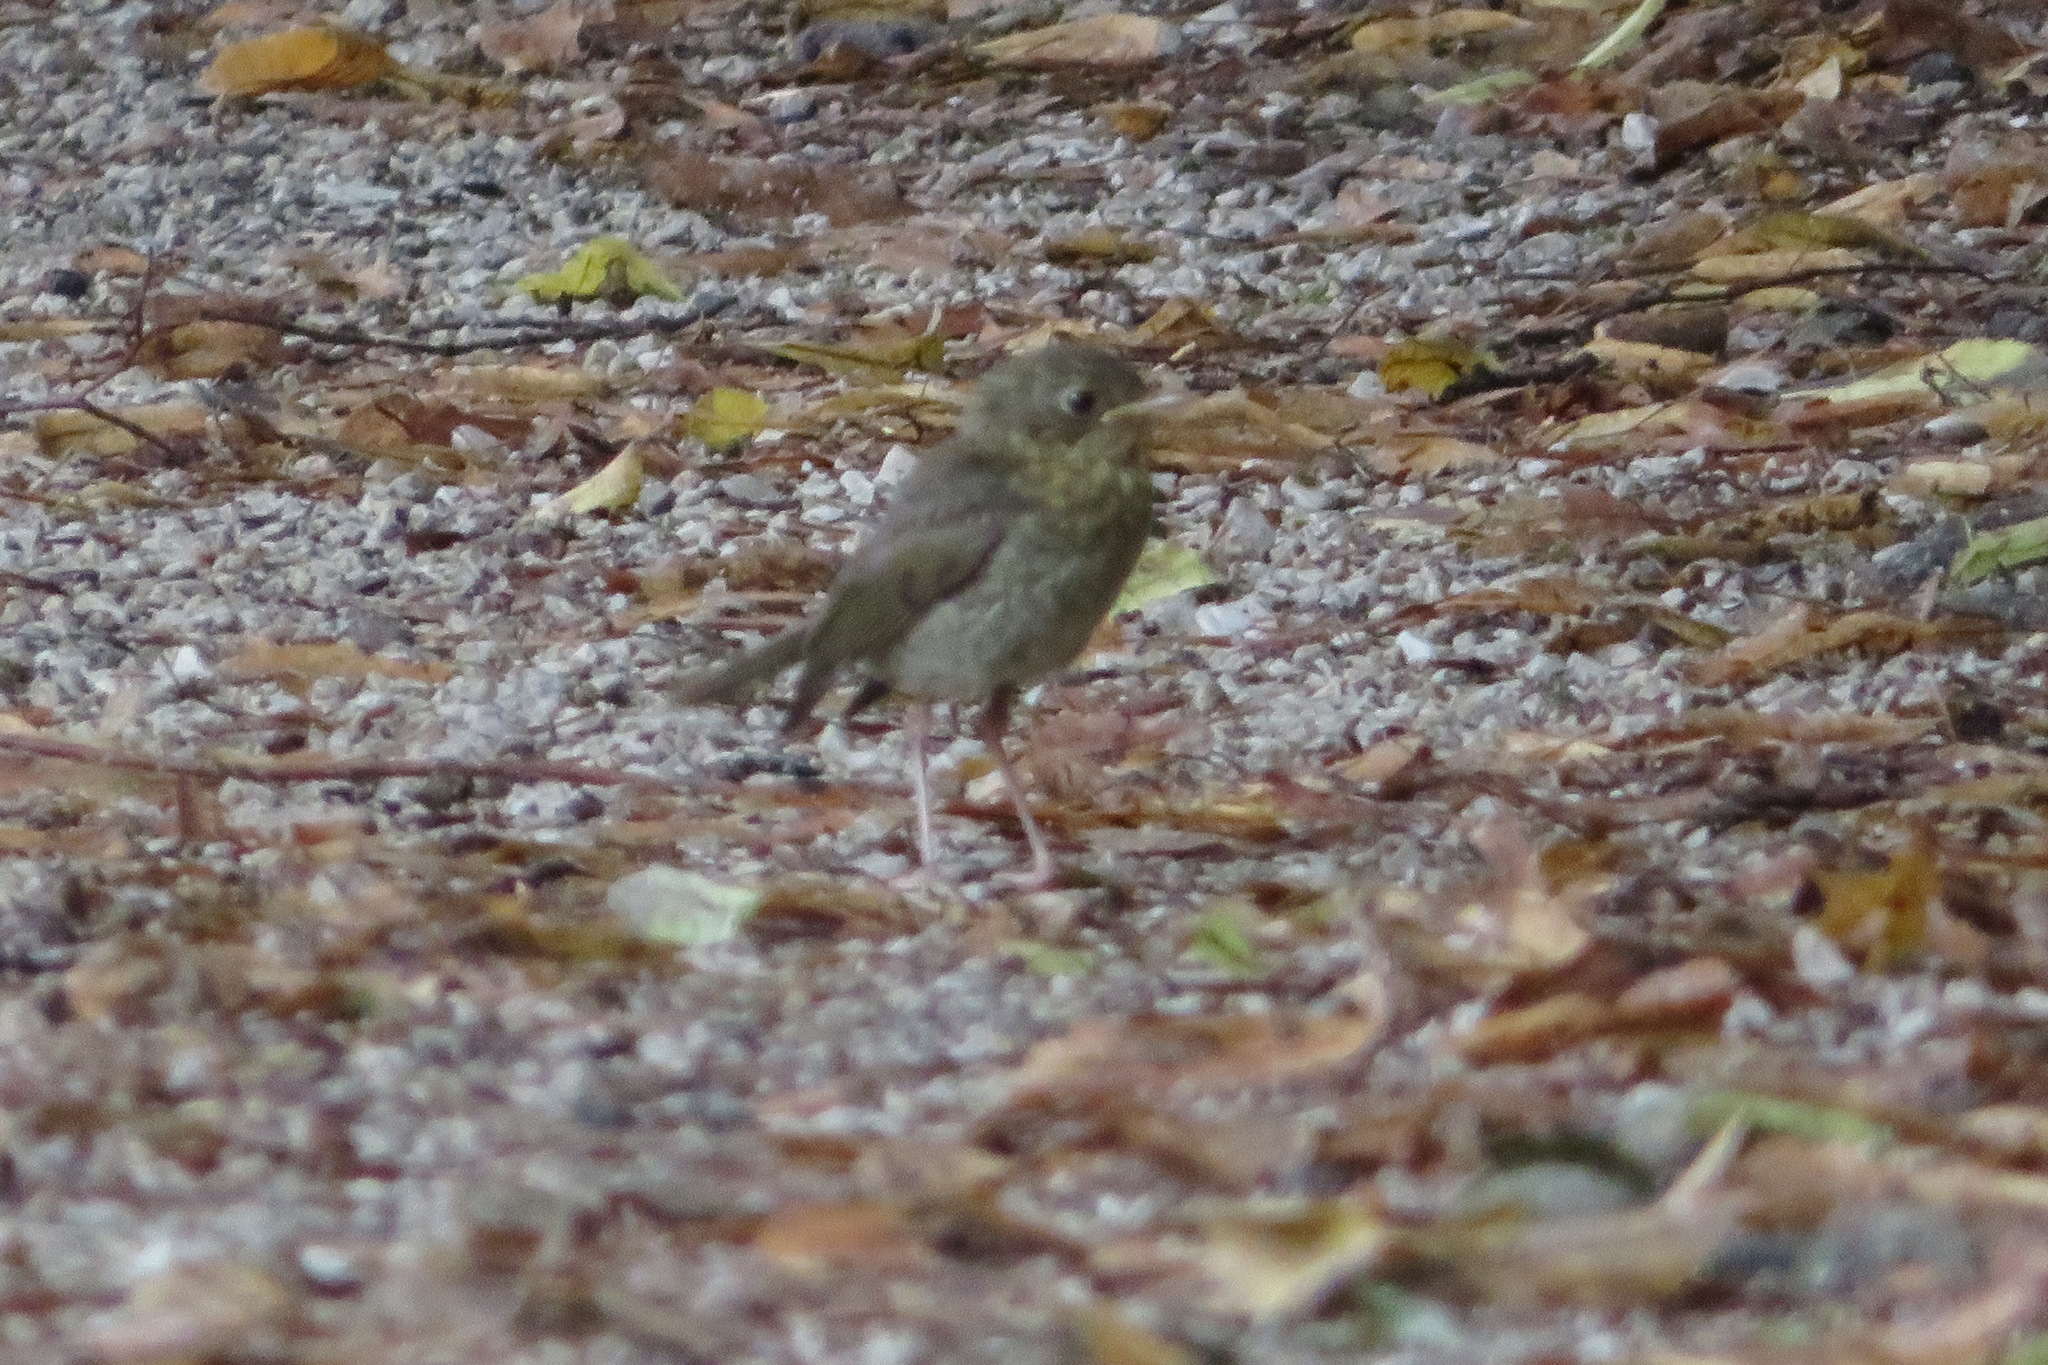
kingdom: Animalia
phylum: Chordata
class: Aves
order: Passeriformes
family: Muscicapidae
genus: Erithacus
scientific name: Erithacus rubecula
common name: European robin
